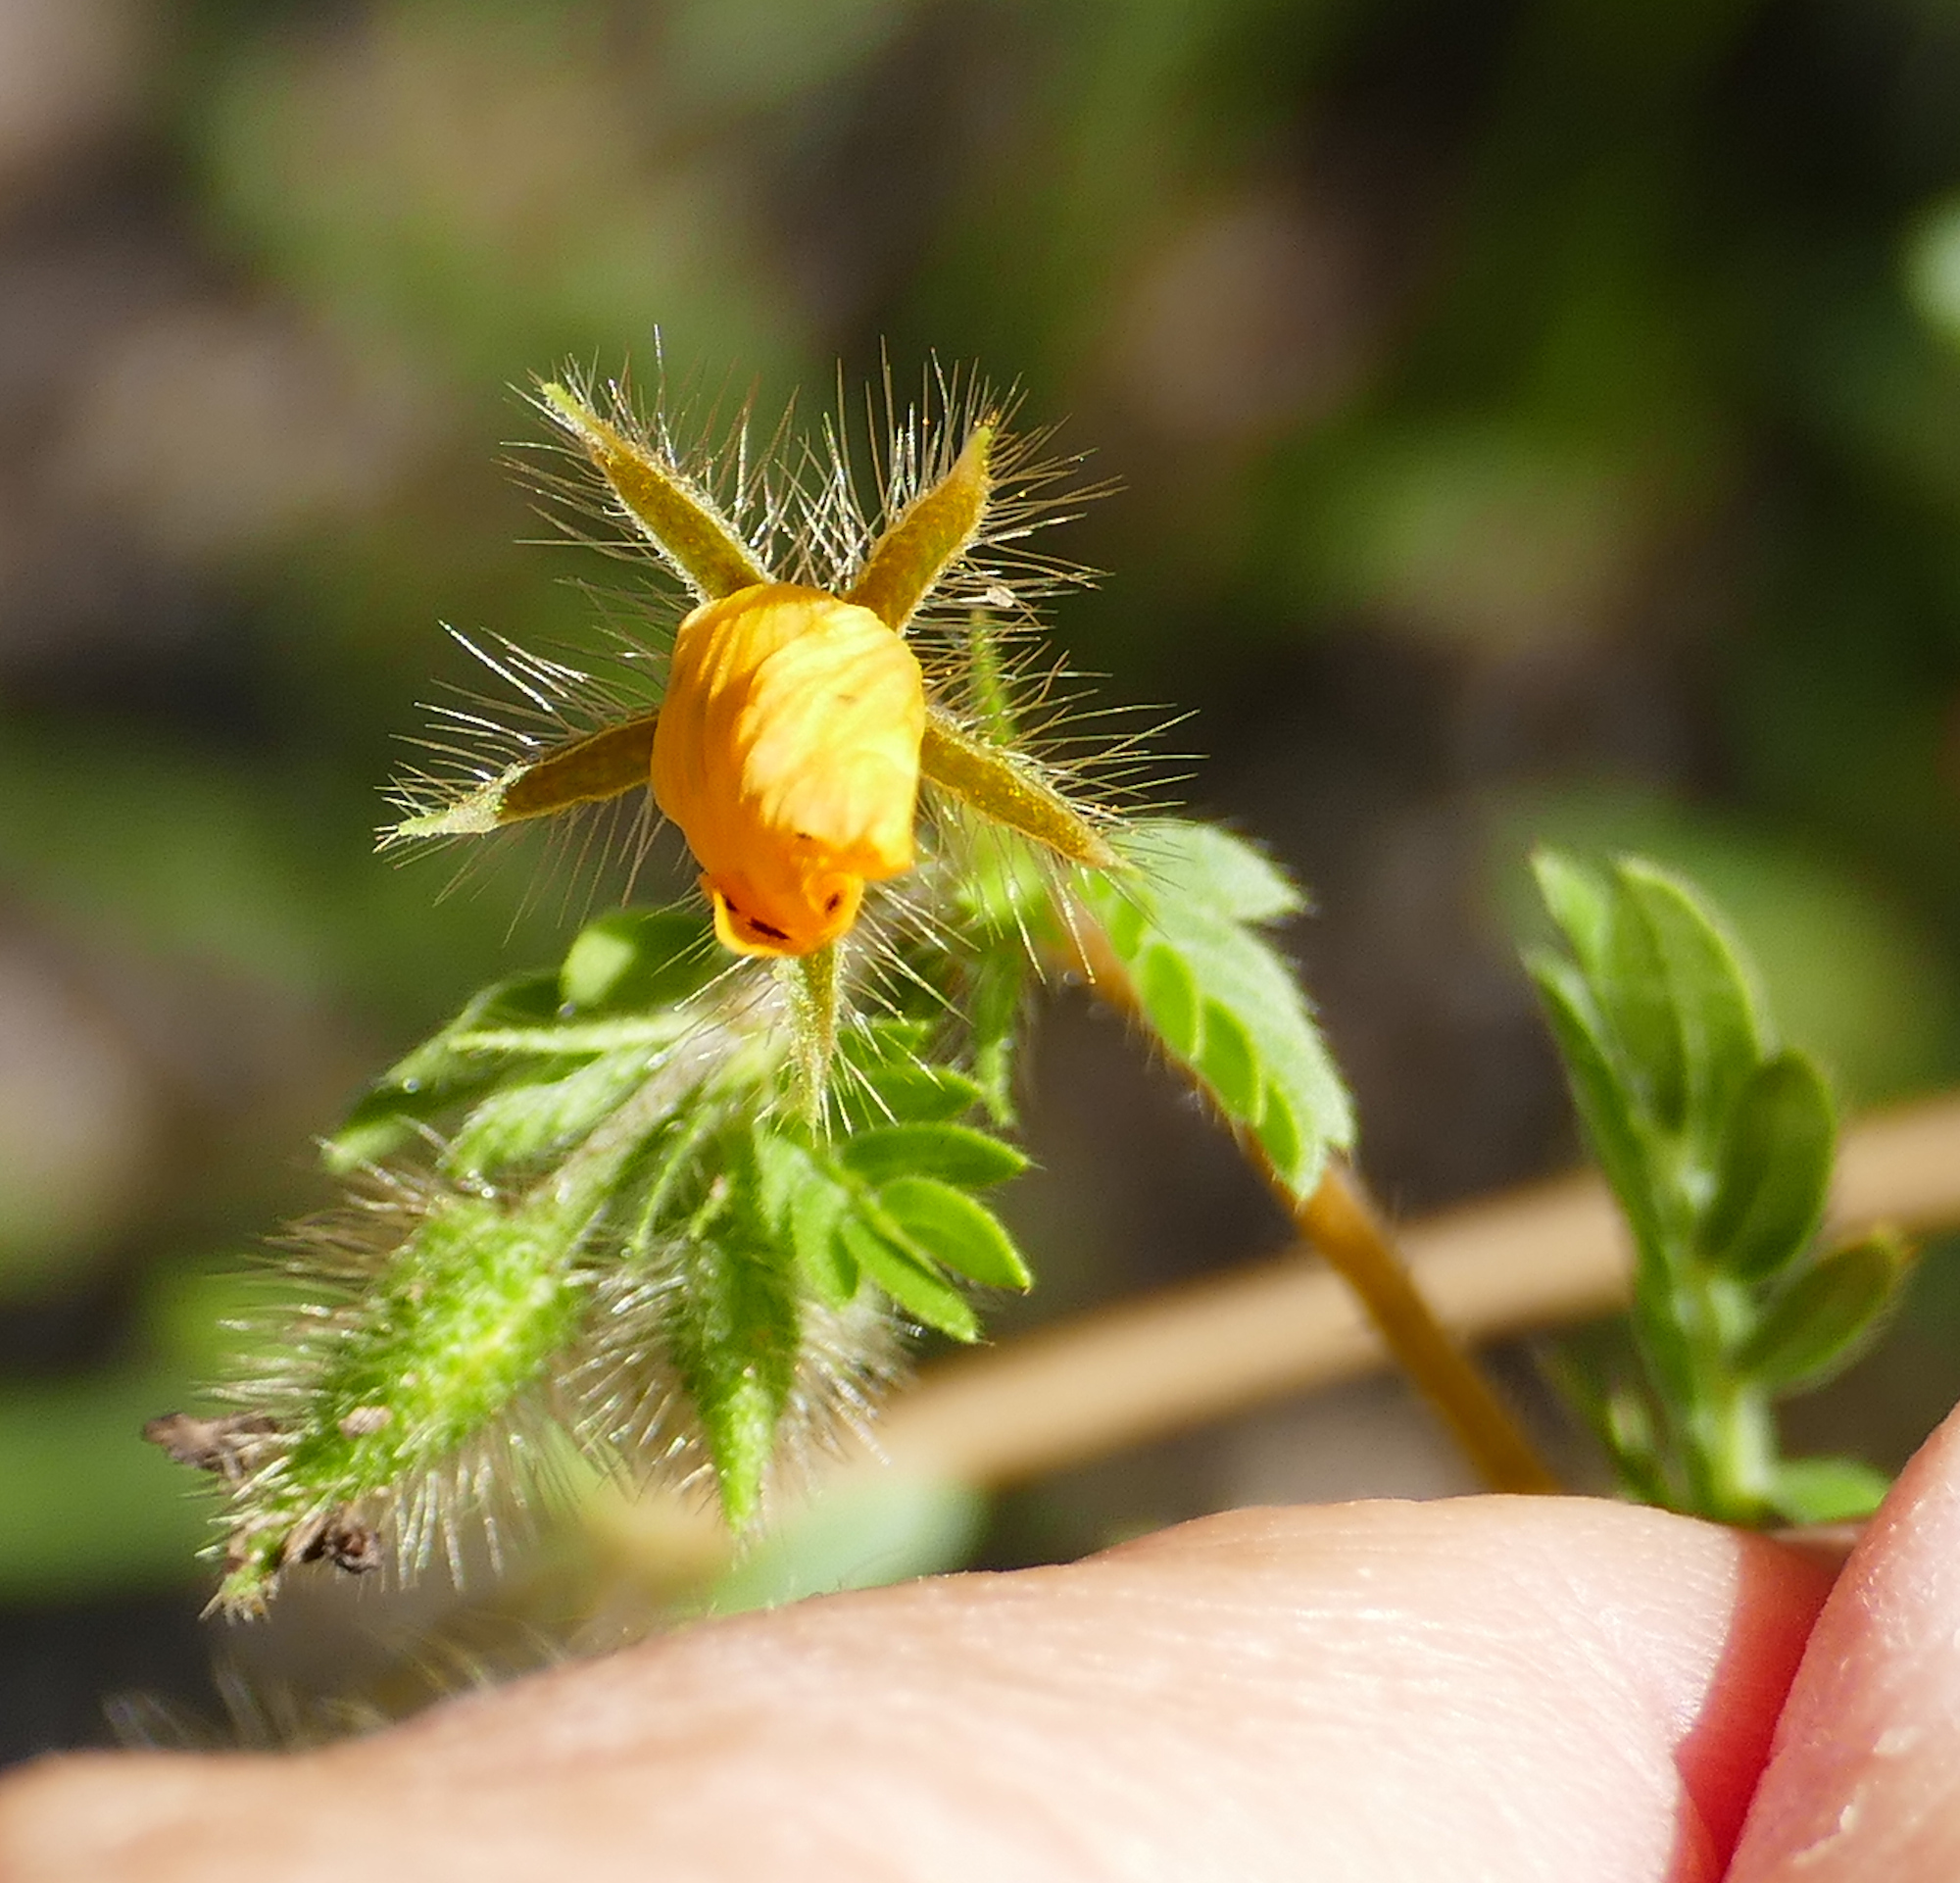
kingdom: Plantae
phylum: Tracheophyta
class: Magnoliopsida
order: Zygophyllales
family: Zygophyllaceae
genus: Kallstroemia
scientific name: Kallstroemia parviflora
